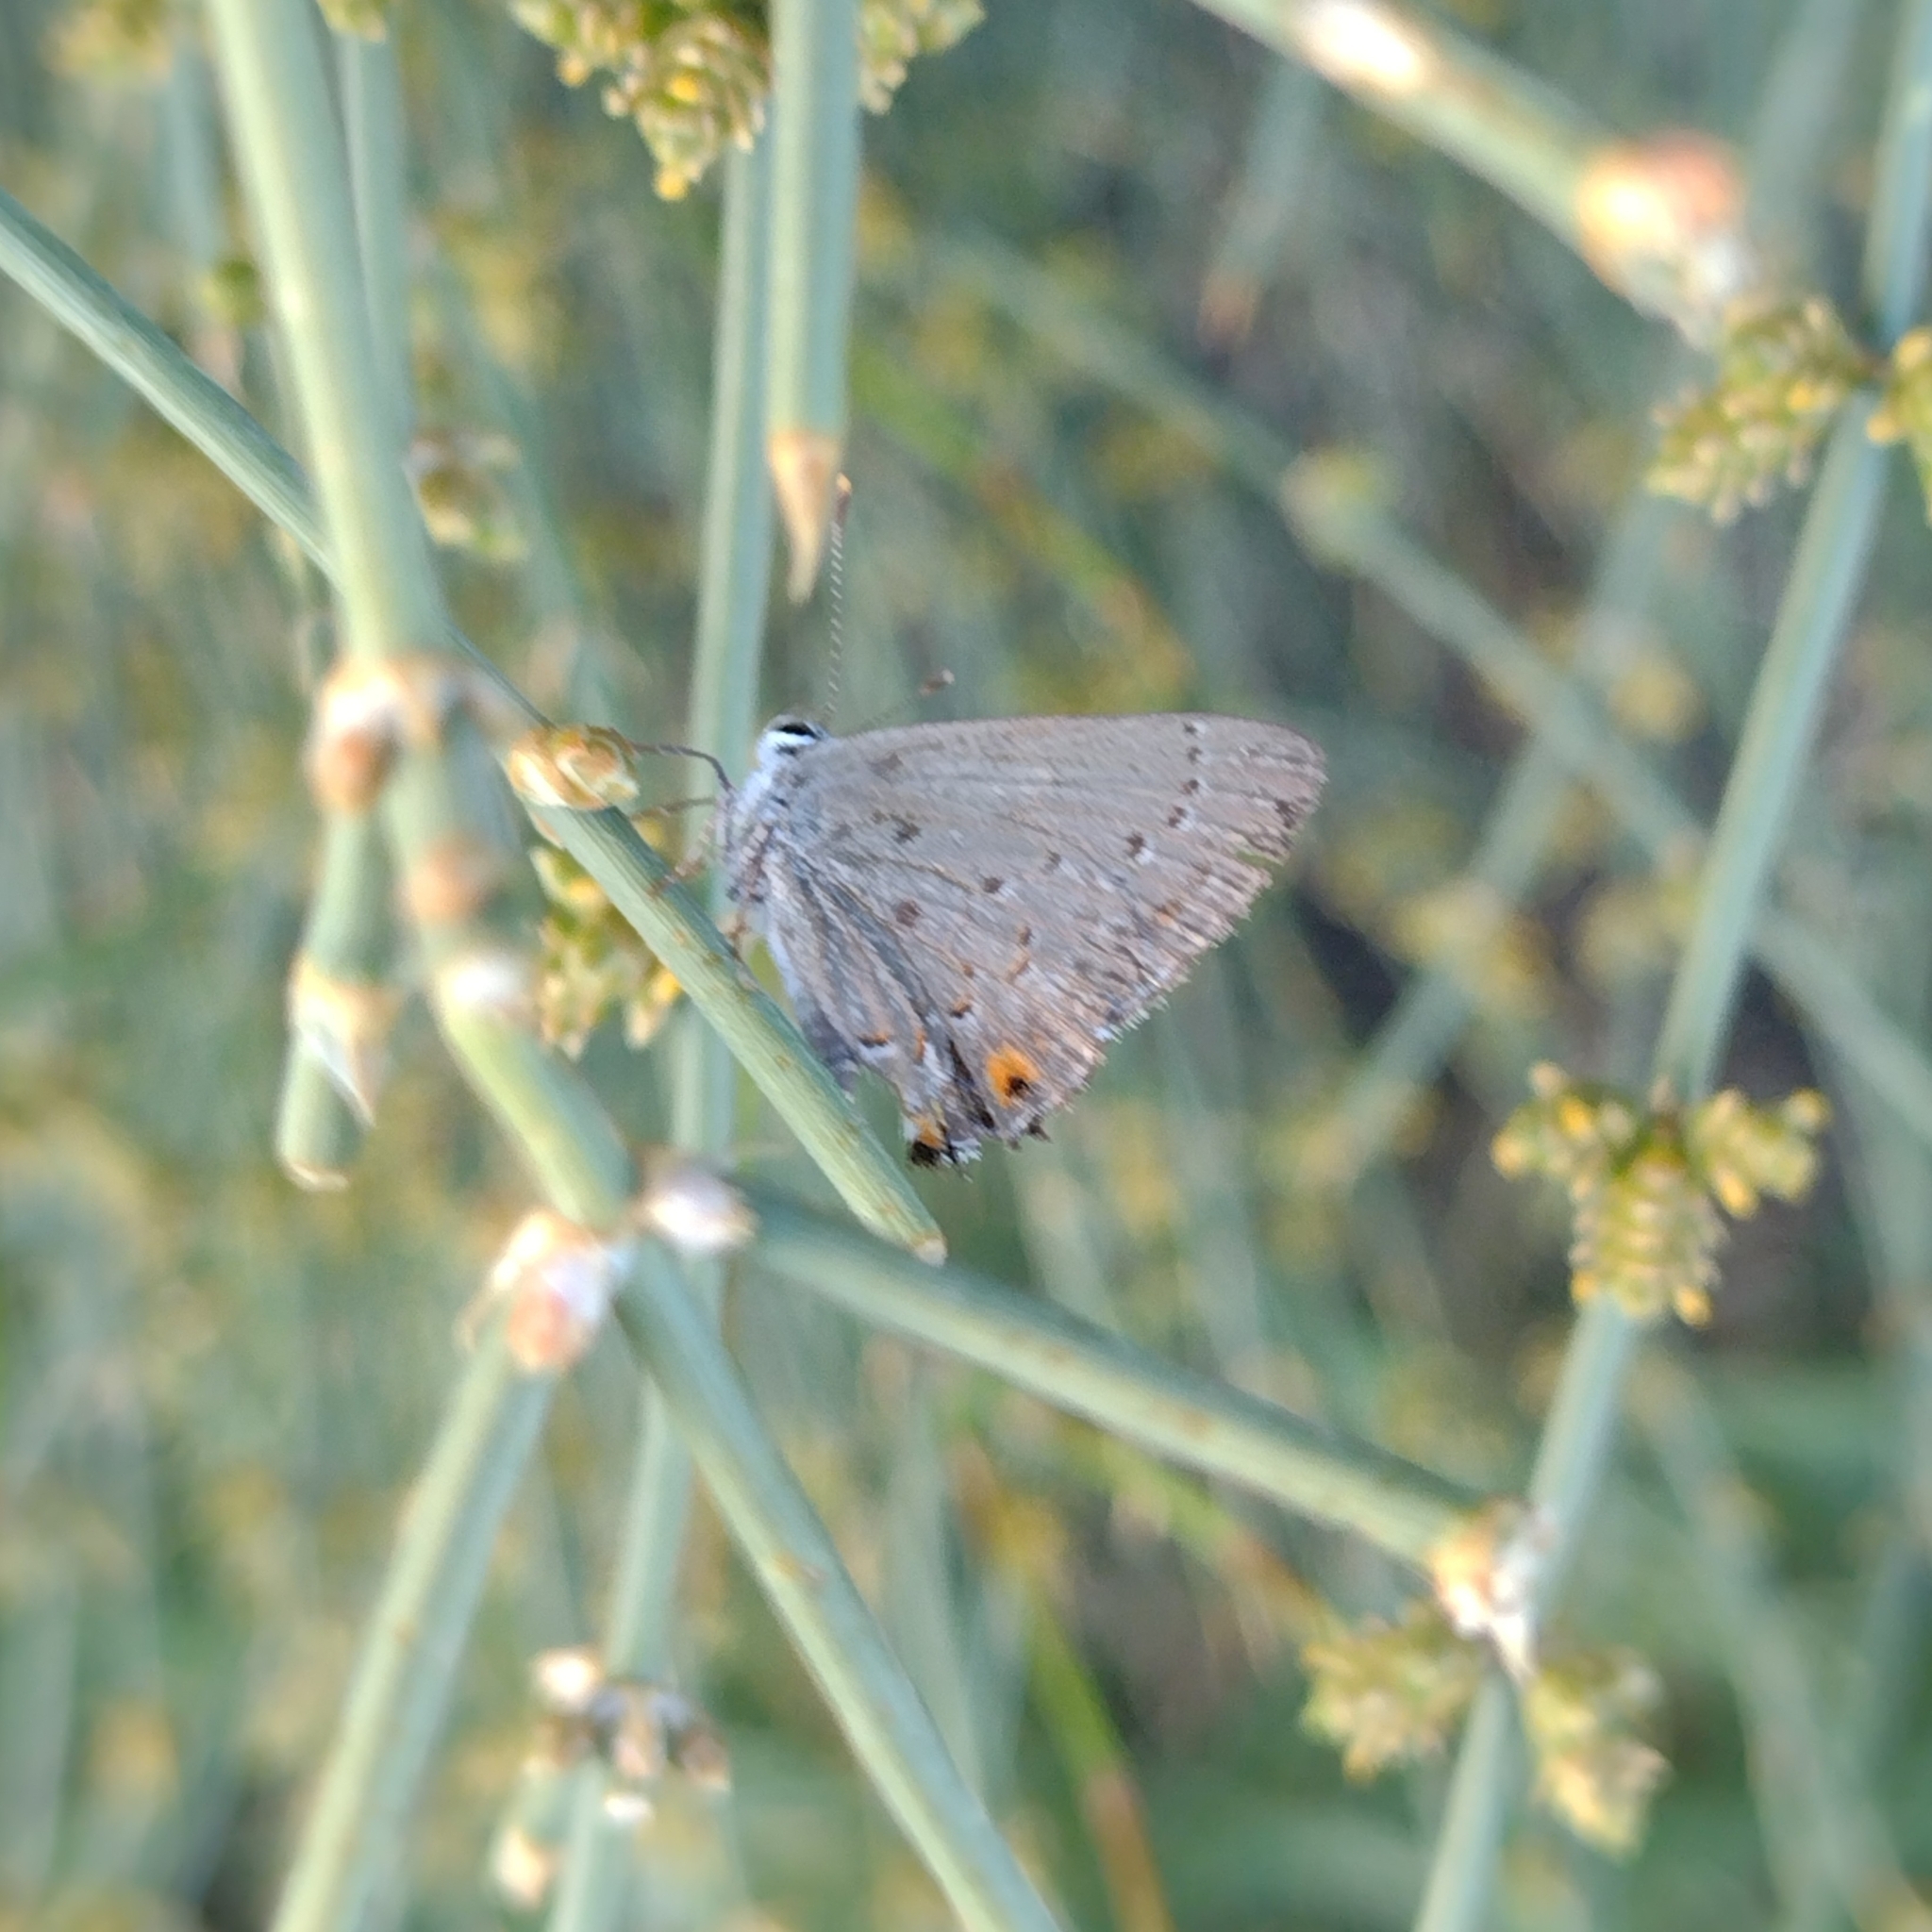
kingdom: Animalia
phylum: Arthropoda
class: Insecta
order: Lepidoptera
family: Lycaenidae
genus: Strymon
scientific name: Strymon eurytulus
